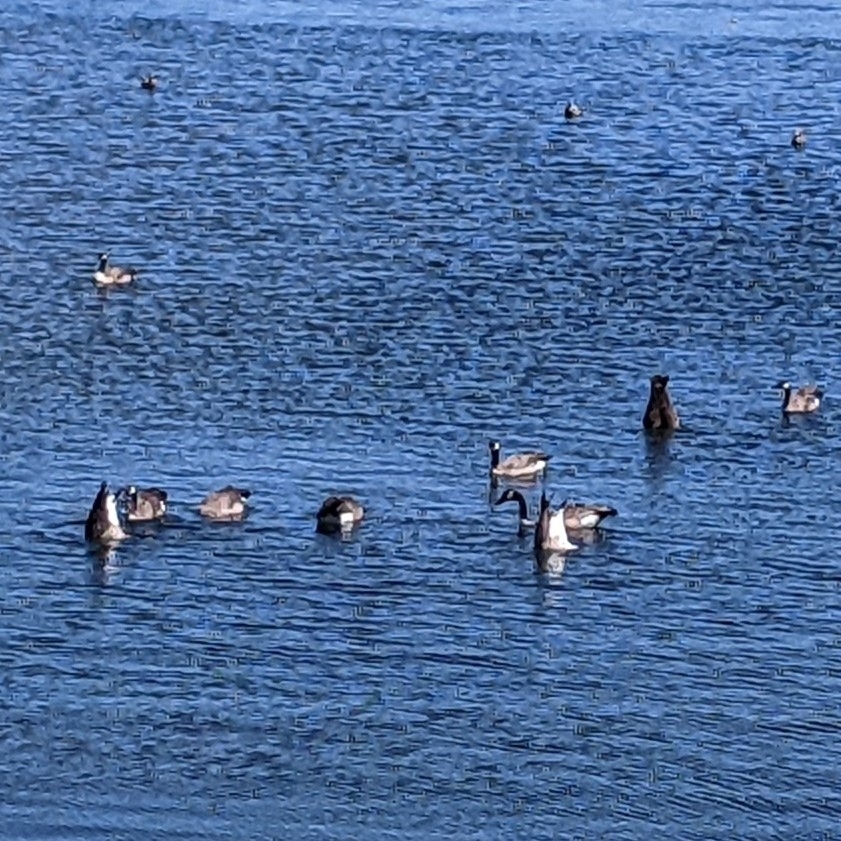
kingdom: Animalia
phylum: Chordata
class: Aves
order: Anseriformes
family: Anatidae
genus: Branta
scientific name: Branta canadensis
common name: Canada goose
